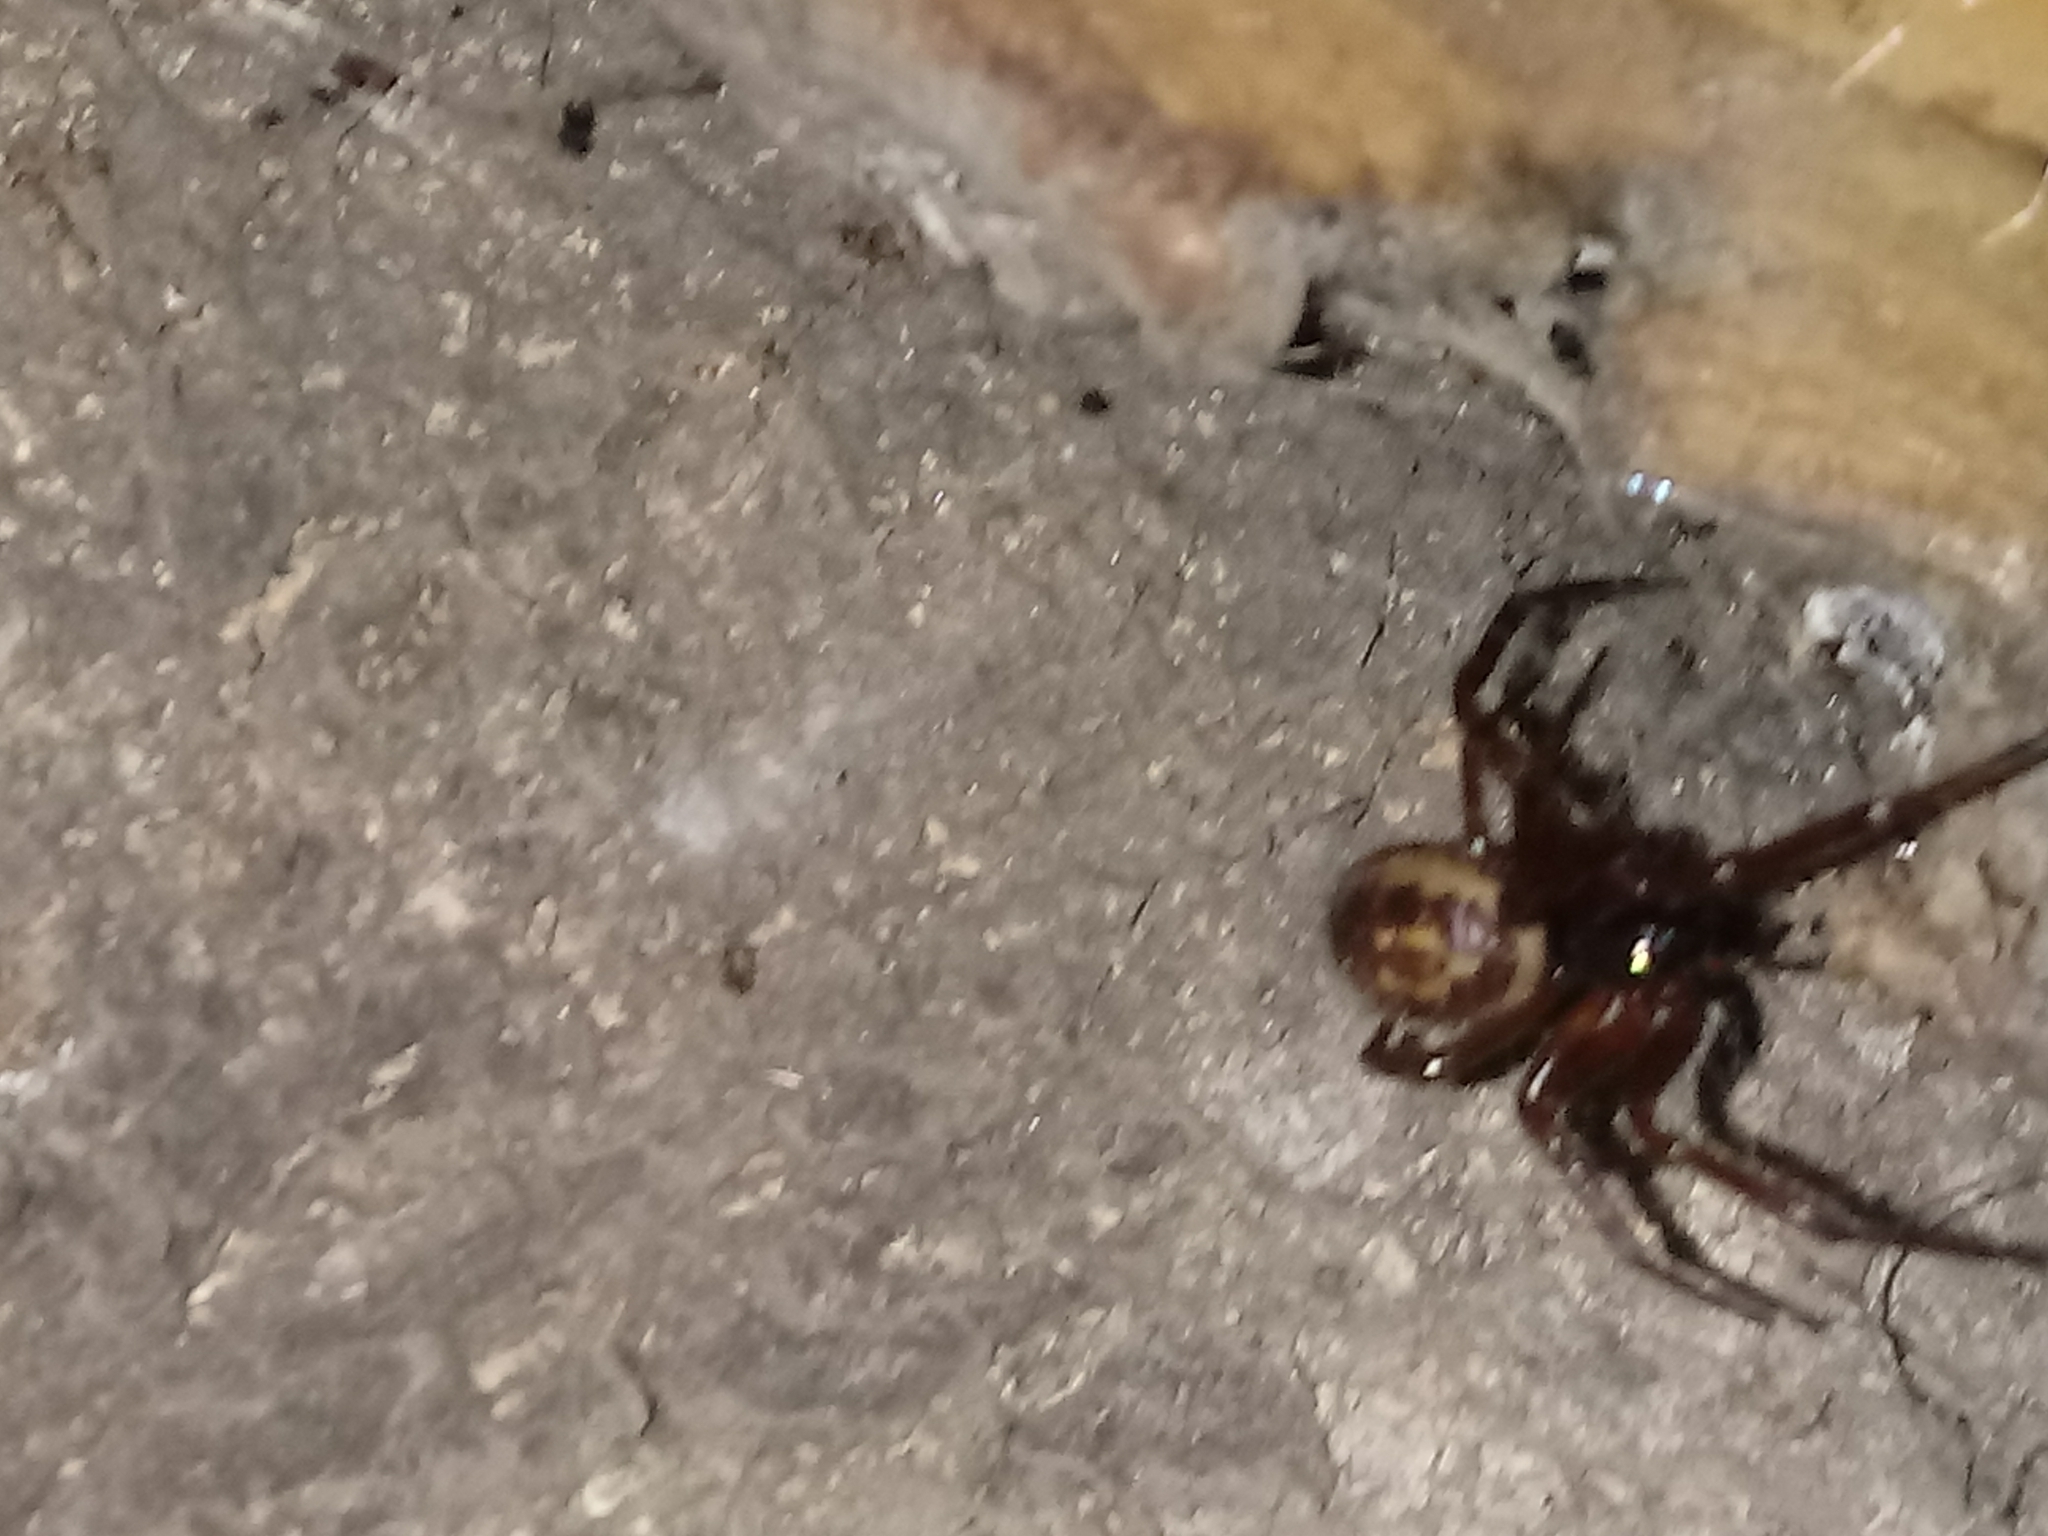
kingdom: Animalia
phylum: Arthropoda
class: Arachnida
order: Araneae
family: Theridiidae
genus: Steatoda
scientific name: Steatoda nobilis
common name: Cobweb weaver
